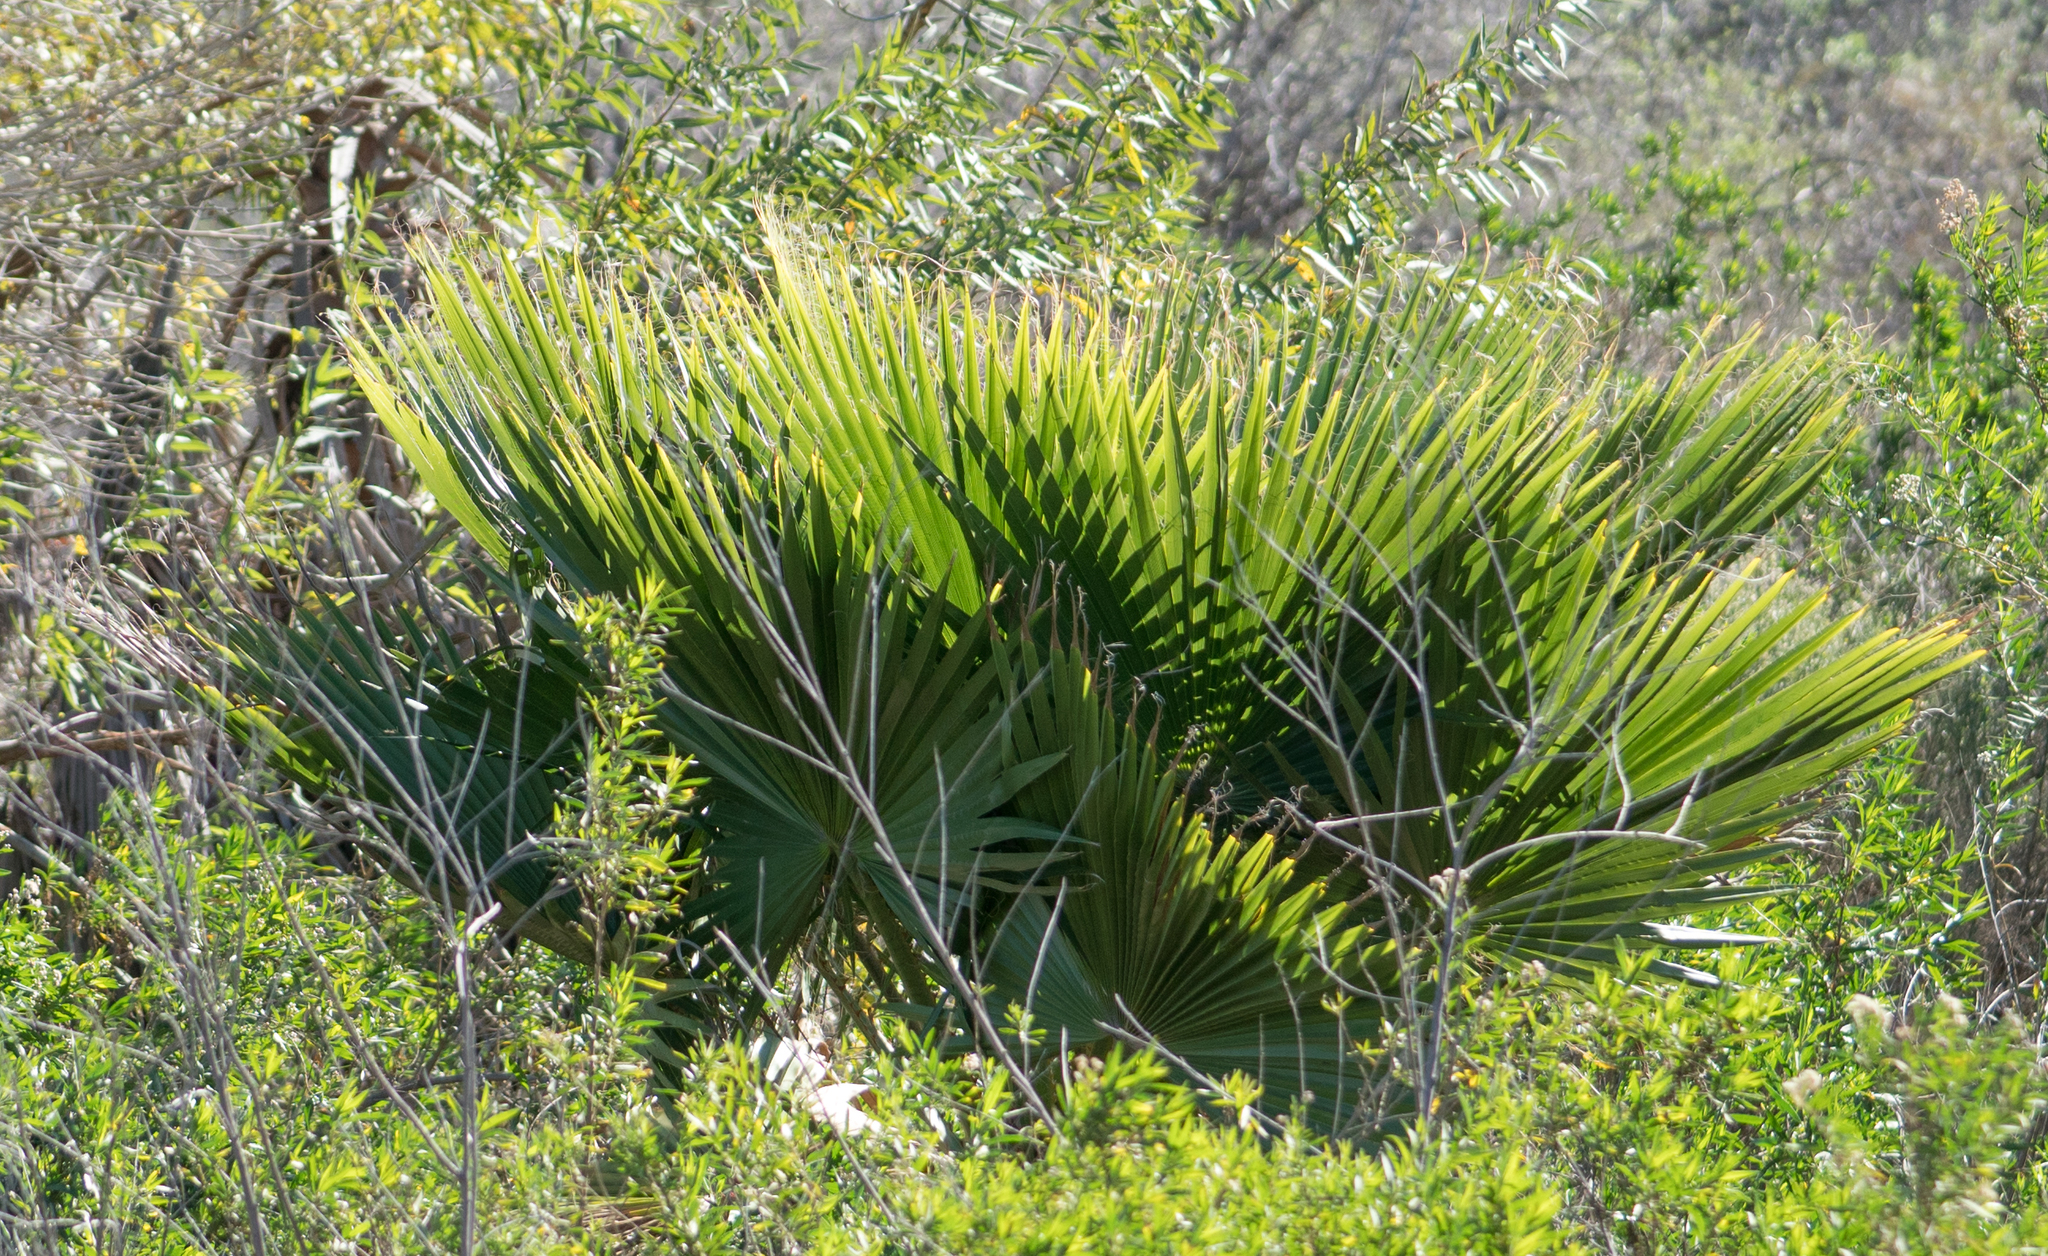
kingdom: Plantae
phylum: Tracheophyta
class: Liliopsida
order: Arecales
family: Arecaceae
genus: Washingtonia
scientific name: Washingtonia robusta
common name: Mexican fan palm
